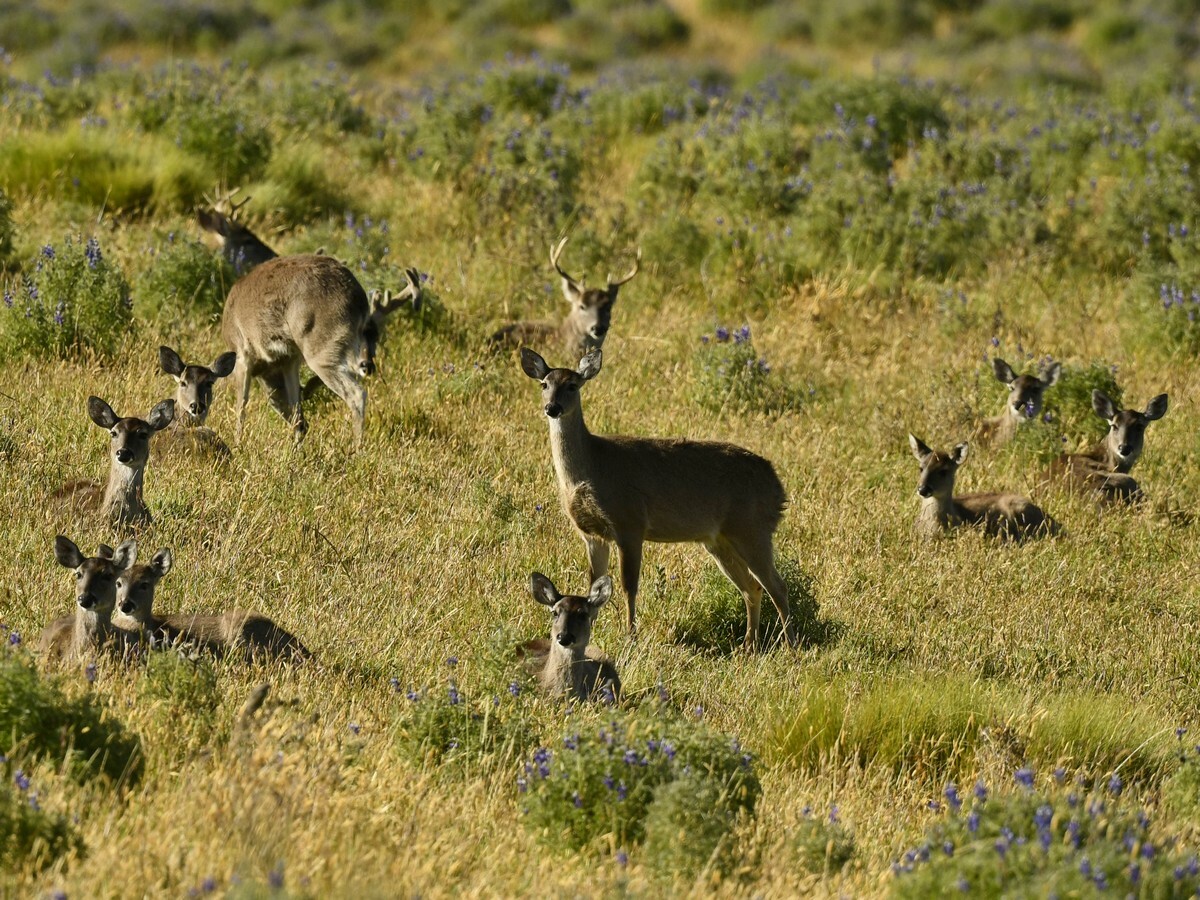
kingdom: Animalia
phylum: Chordata
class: Mammalia
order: Artiodactyla
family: Cervidae
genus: Odocoileus
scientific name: Odocoileus virginianus
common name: White-tailed deer
